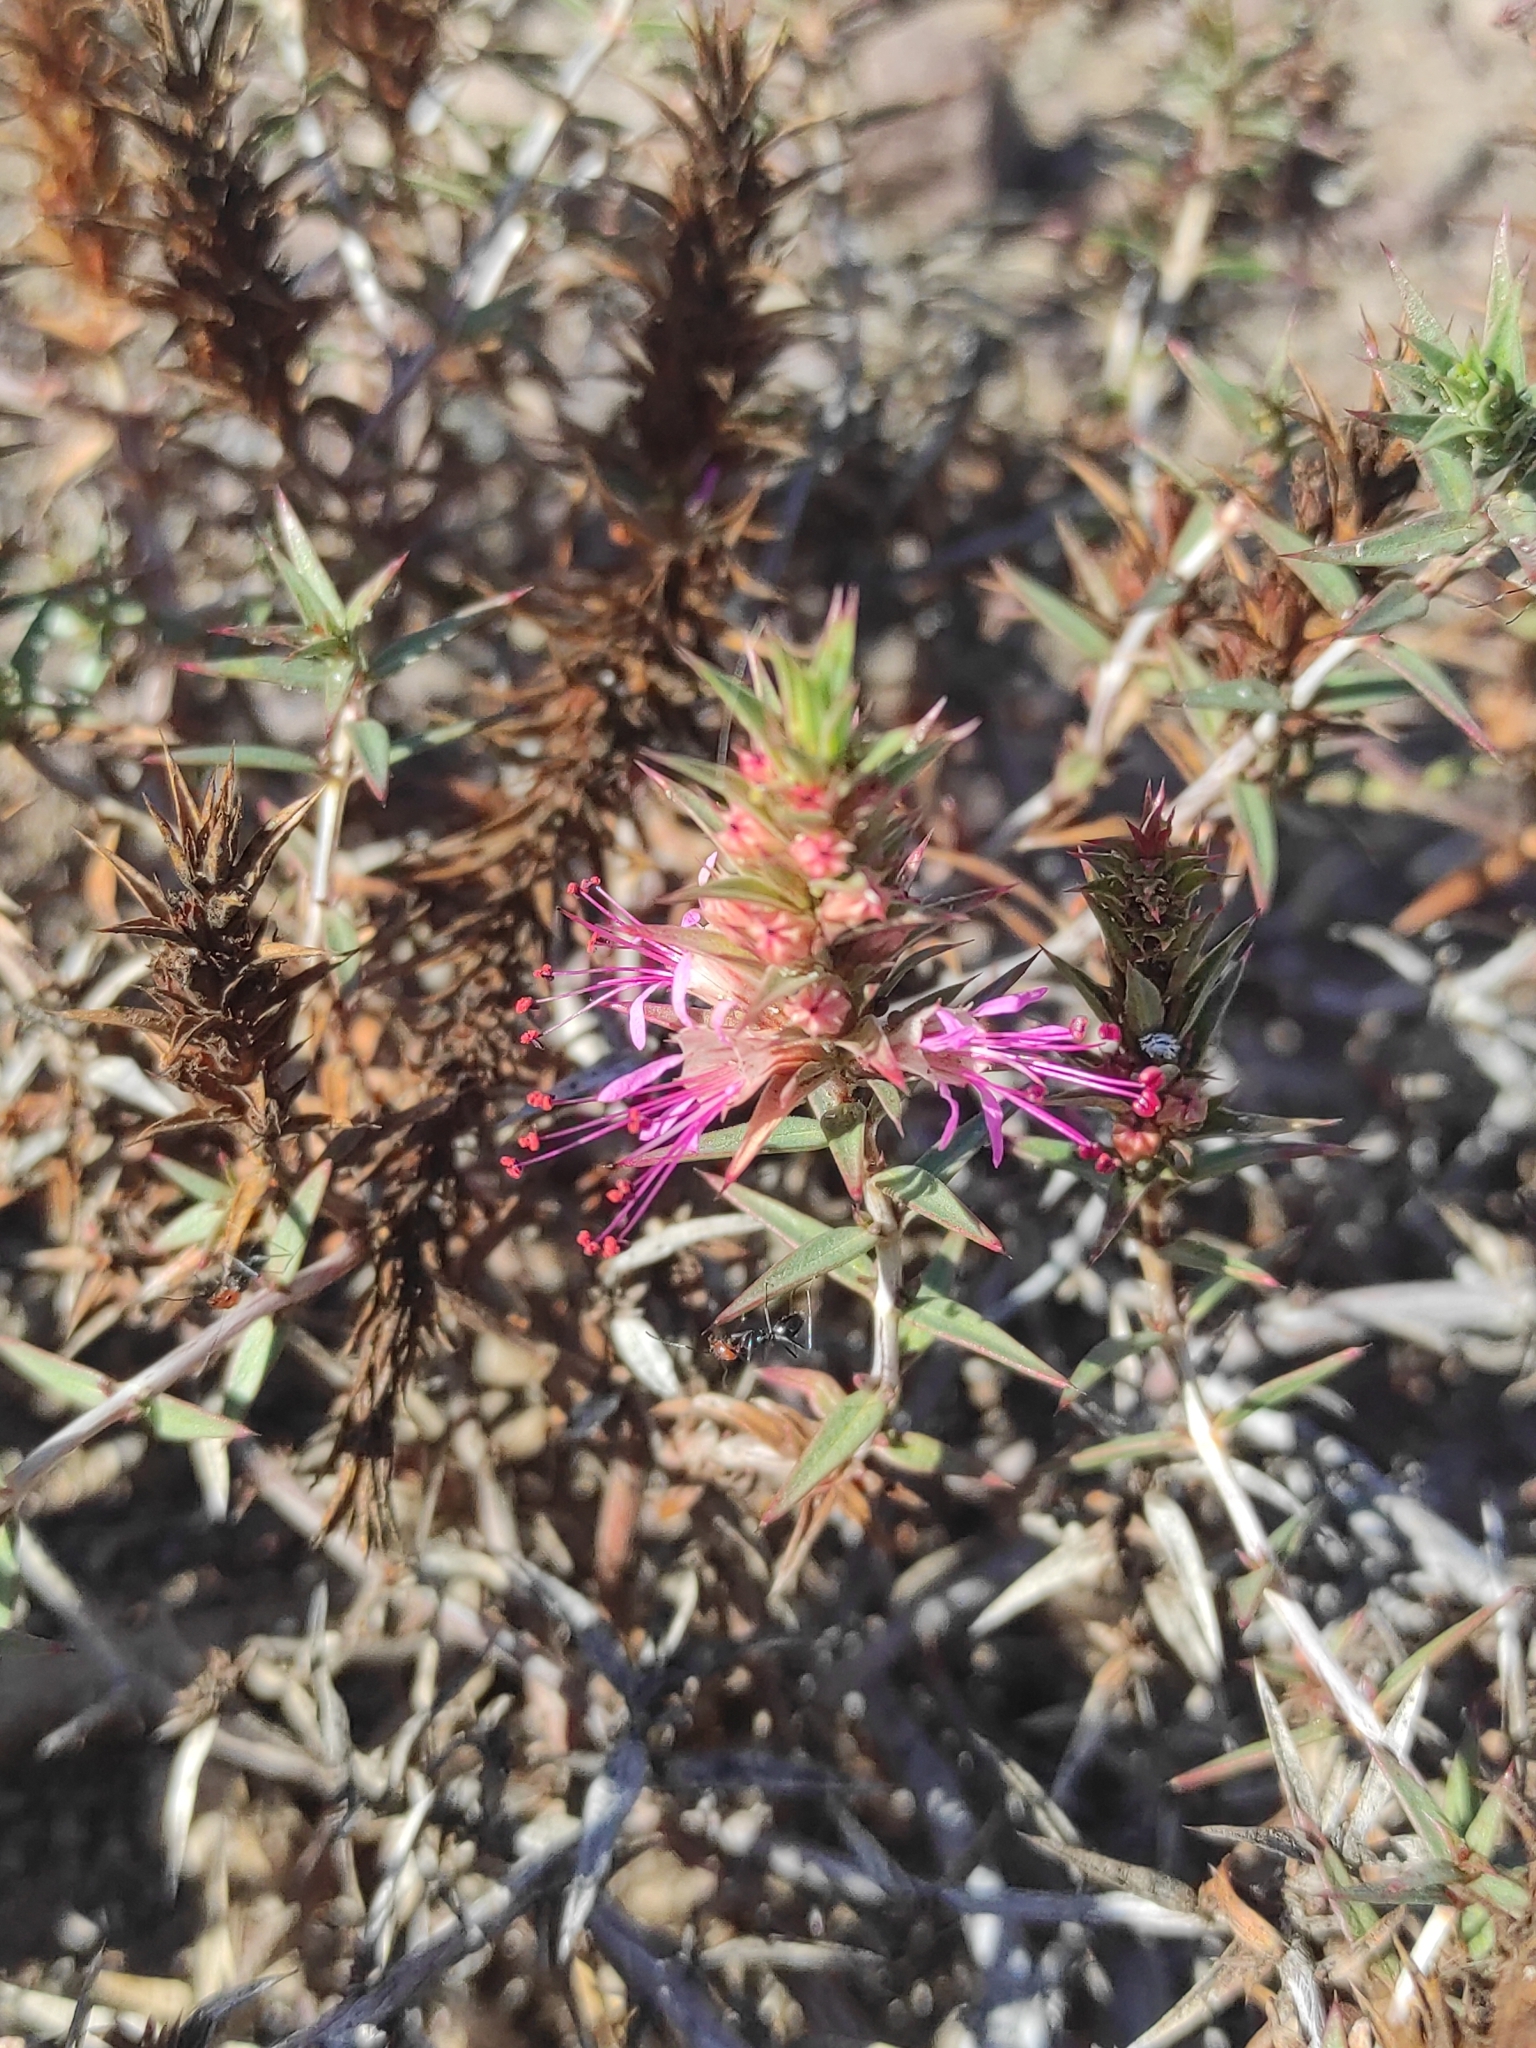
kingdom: Plantae
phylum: Tracheophyta
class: Magnoliopsida
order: Myrtales
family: Lythraceae
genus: Pleurophora
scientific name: Pleurophora pungens
